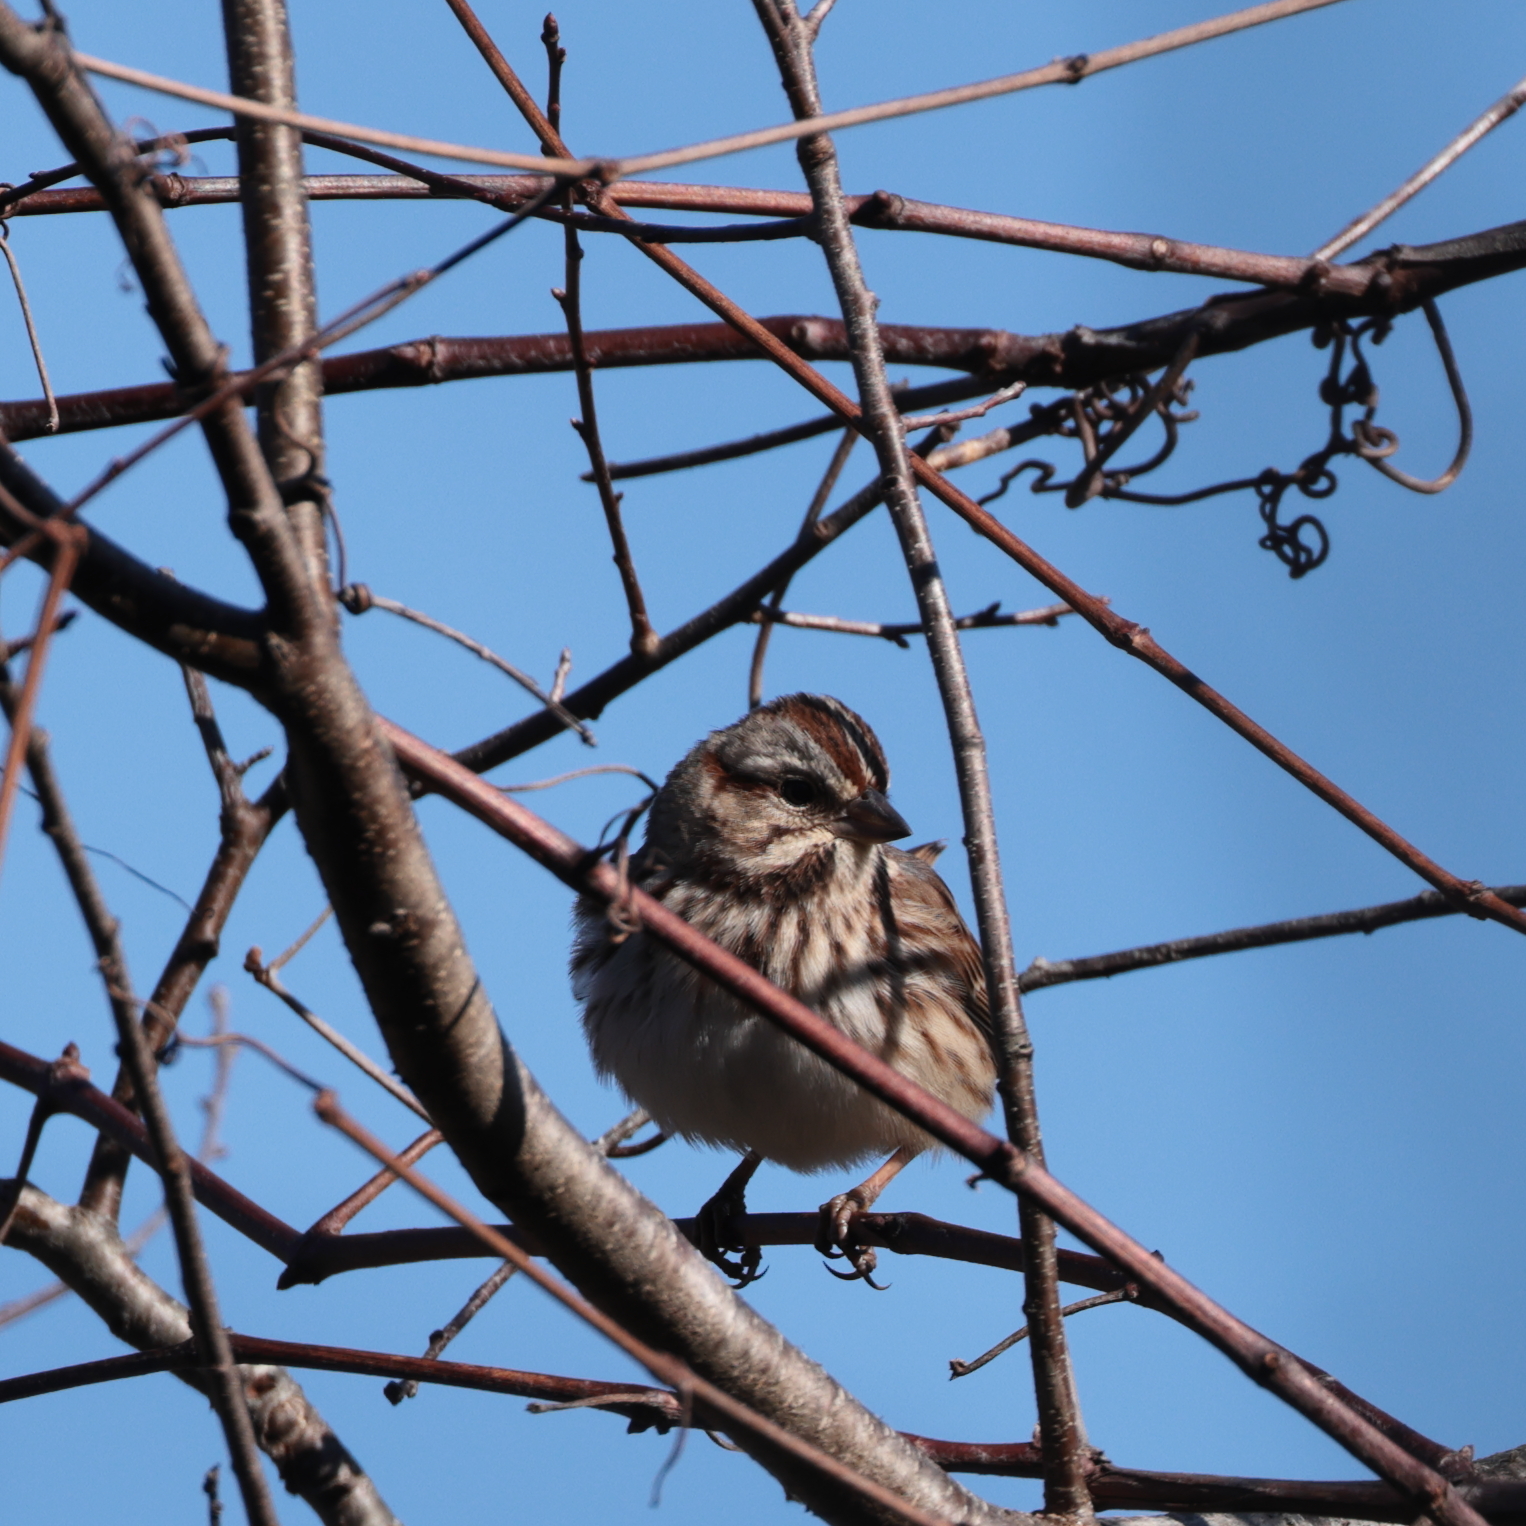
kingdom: Animalia
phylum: Chordata
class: Aves
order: Passeriformes
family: Passerellidae
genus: Melospiza
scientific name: Melospiza melodia
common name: Song sparrow
